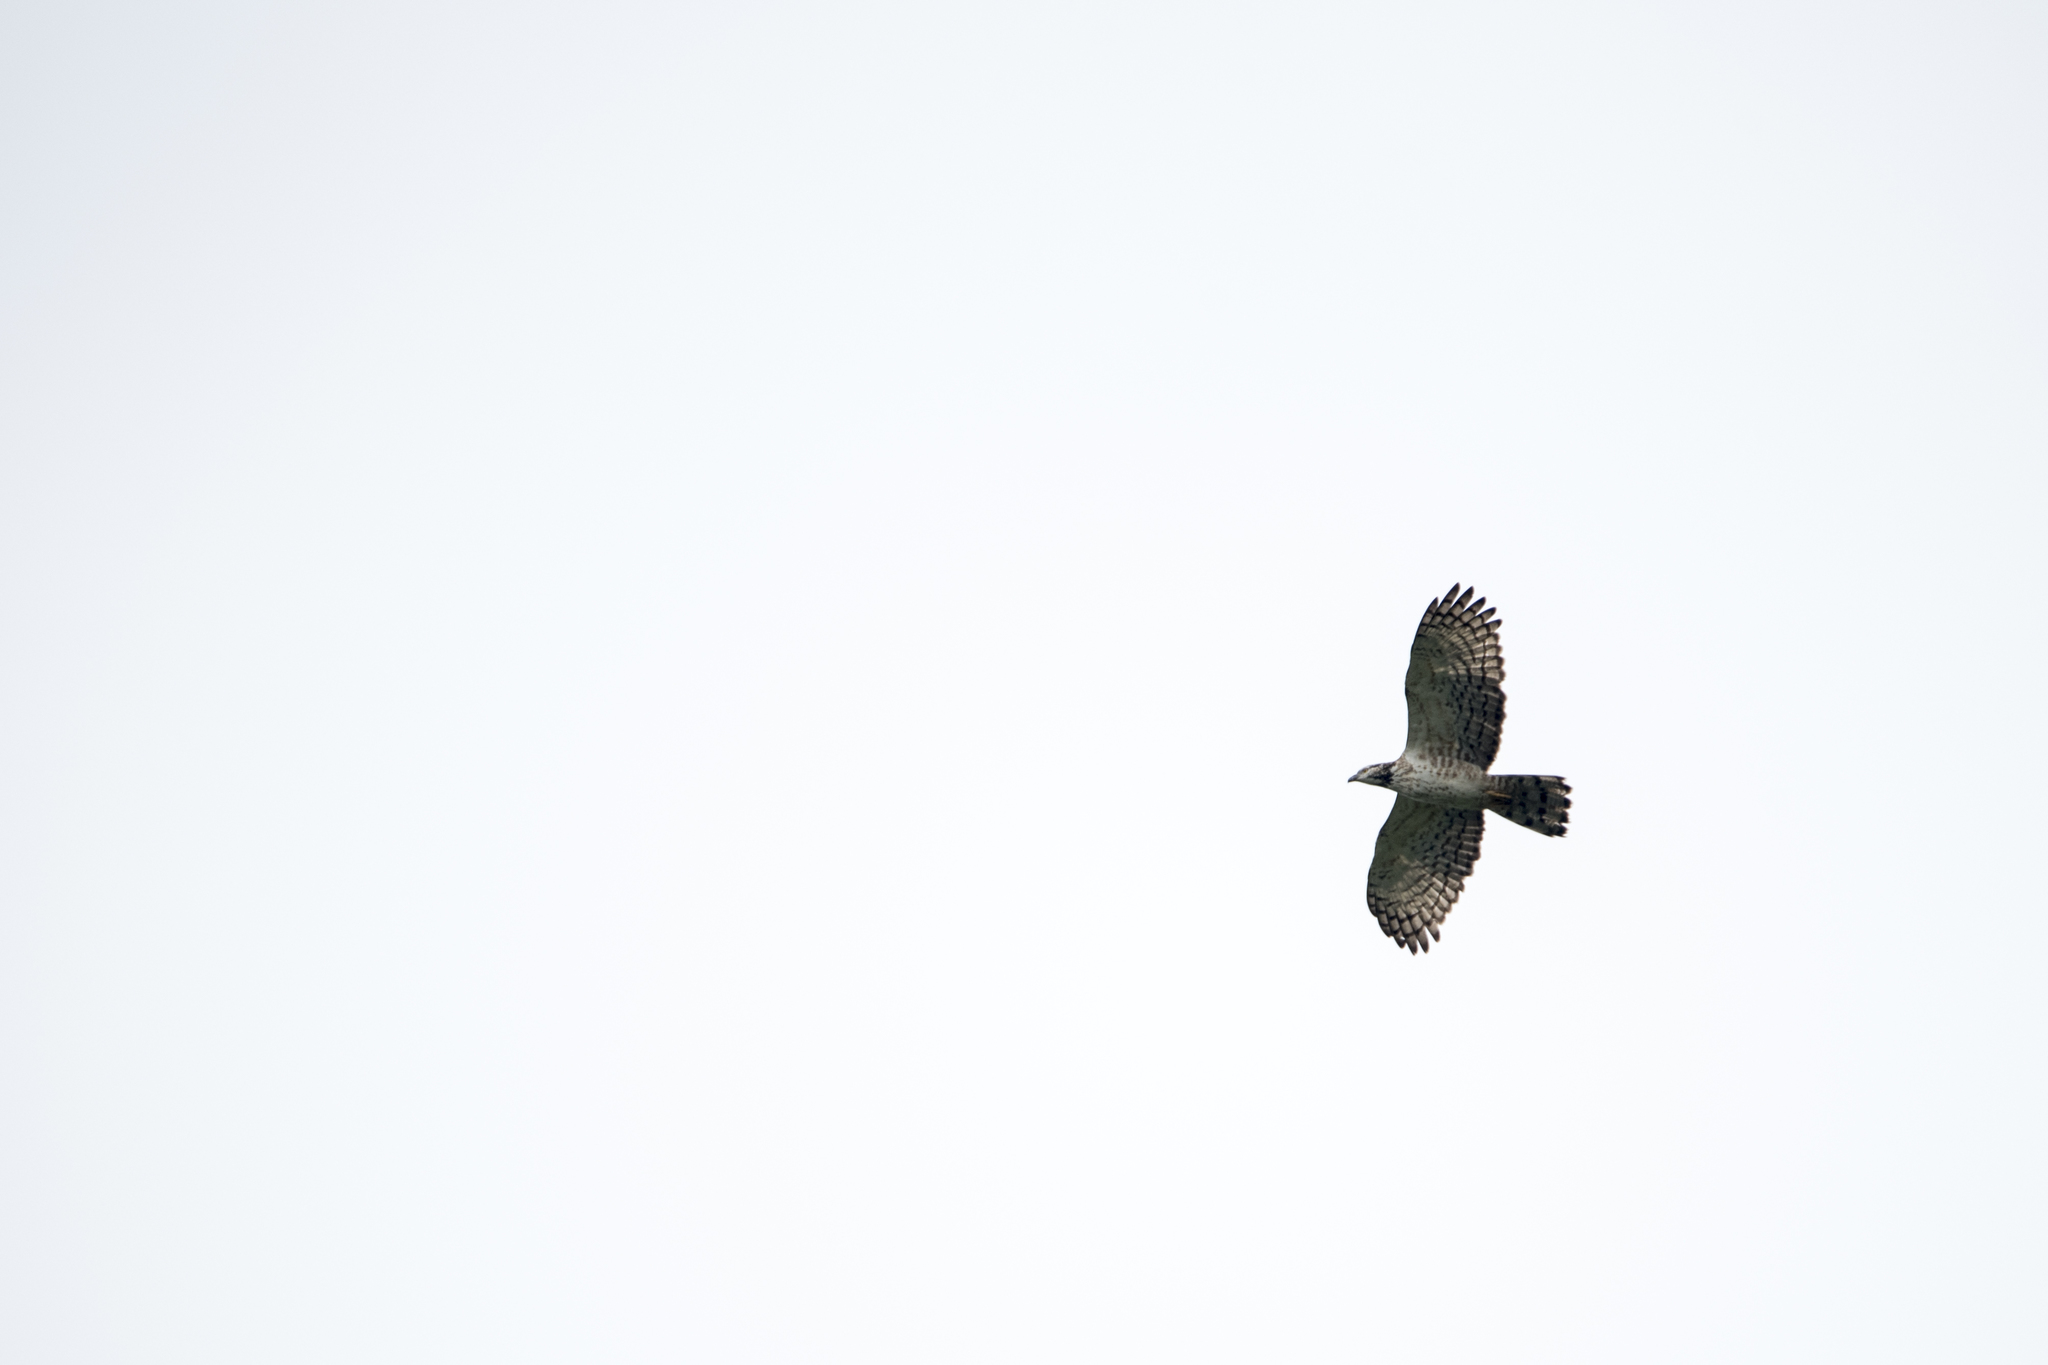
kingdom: Animalia
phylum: Chordata
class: Aves
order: Accipitriformes
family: Accipitridae
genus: Pernis
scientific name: Pernis ptilorhynchus
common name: Crested honey buzzard
